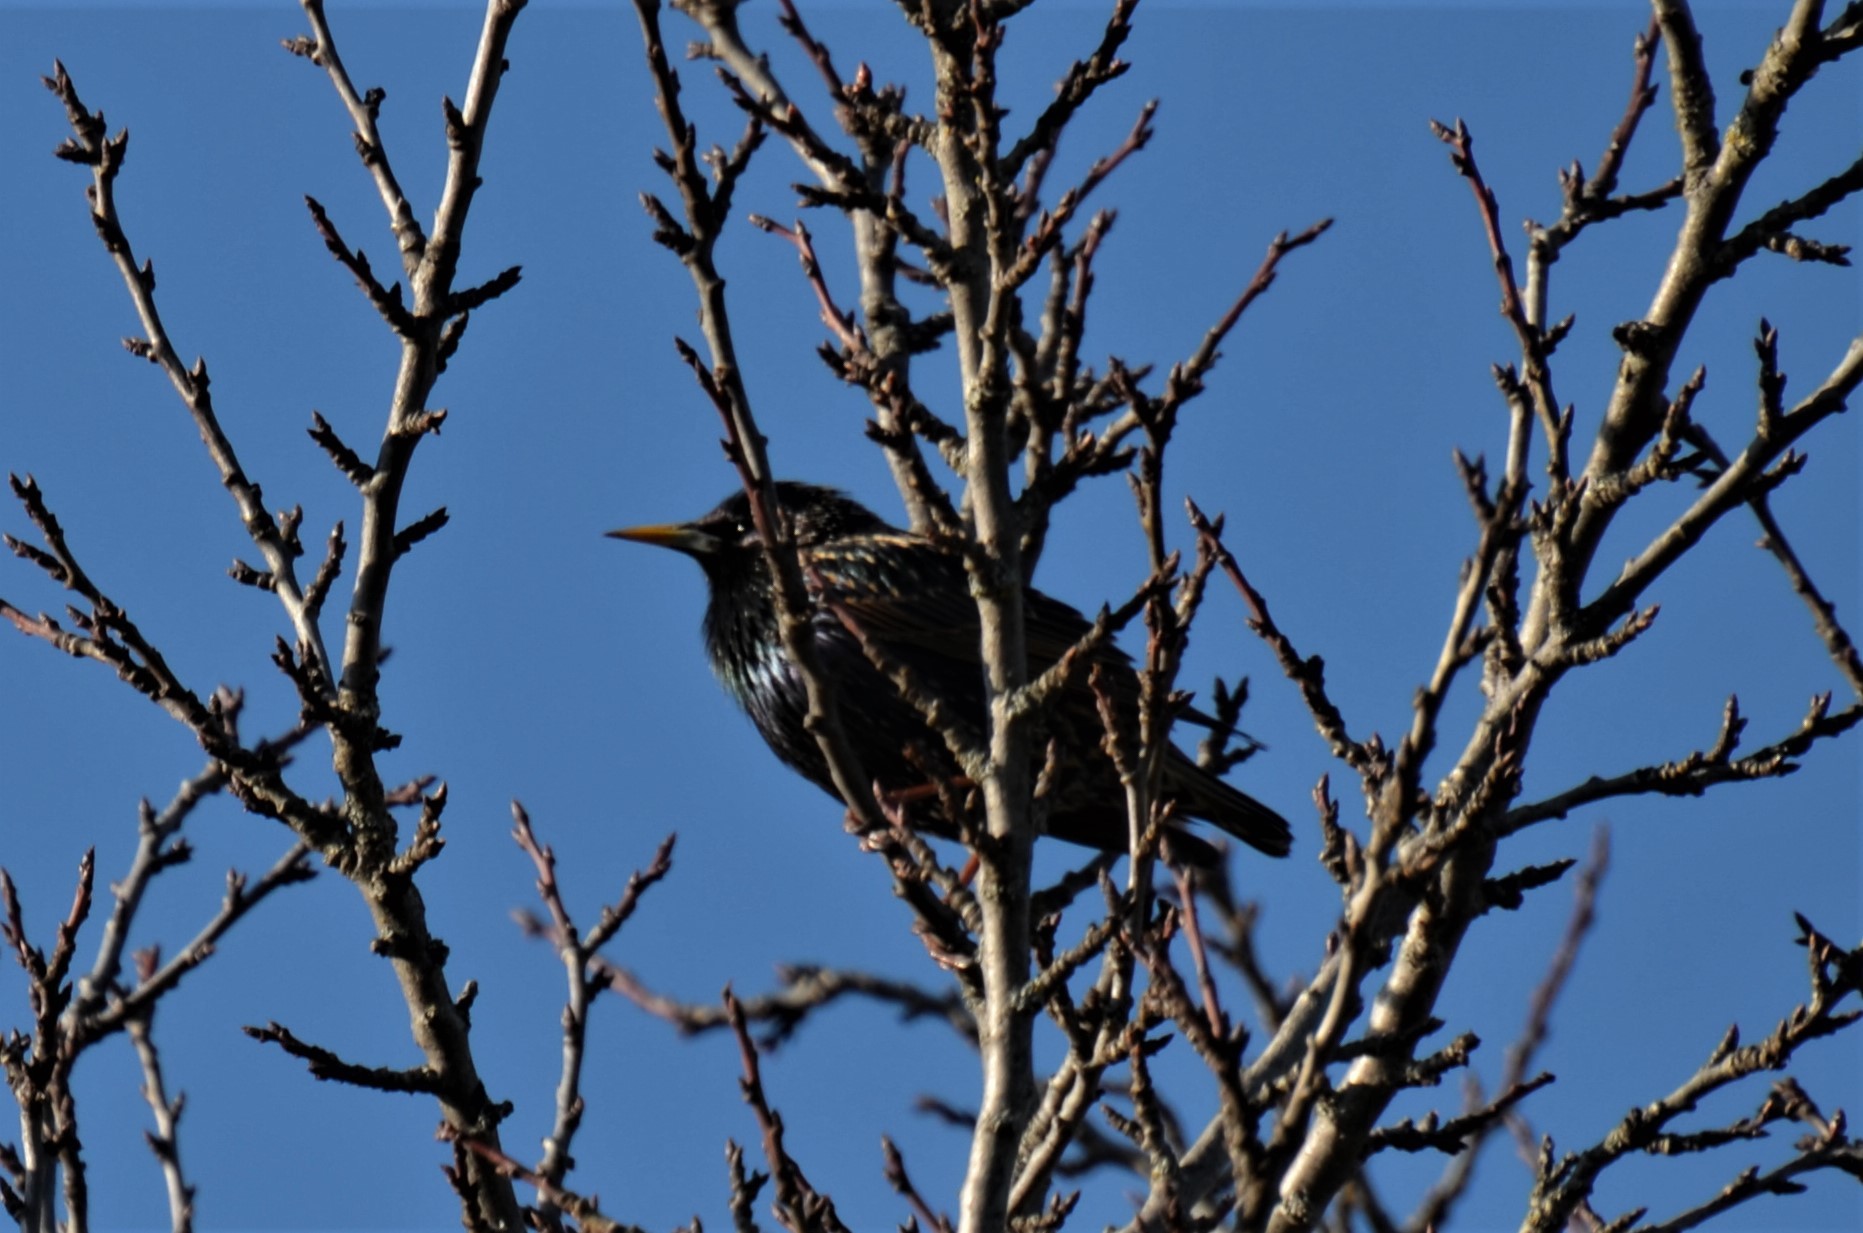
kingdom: Animalia
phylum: Chordata
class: Aves
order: Passeriformes
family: Sturnidae
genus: Sturnus
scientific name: Sturnus vulgaris
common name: Common starling
